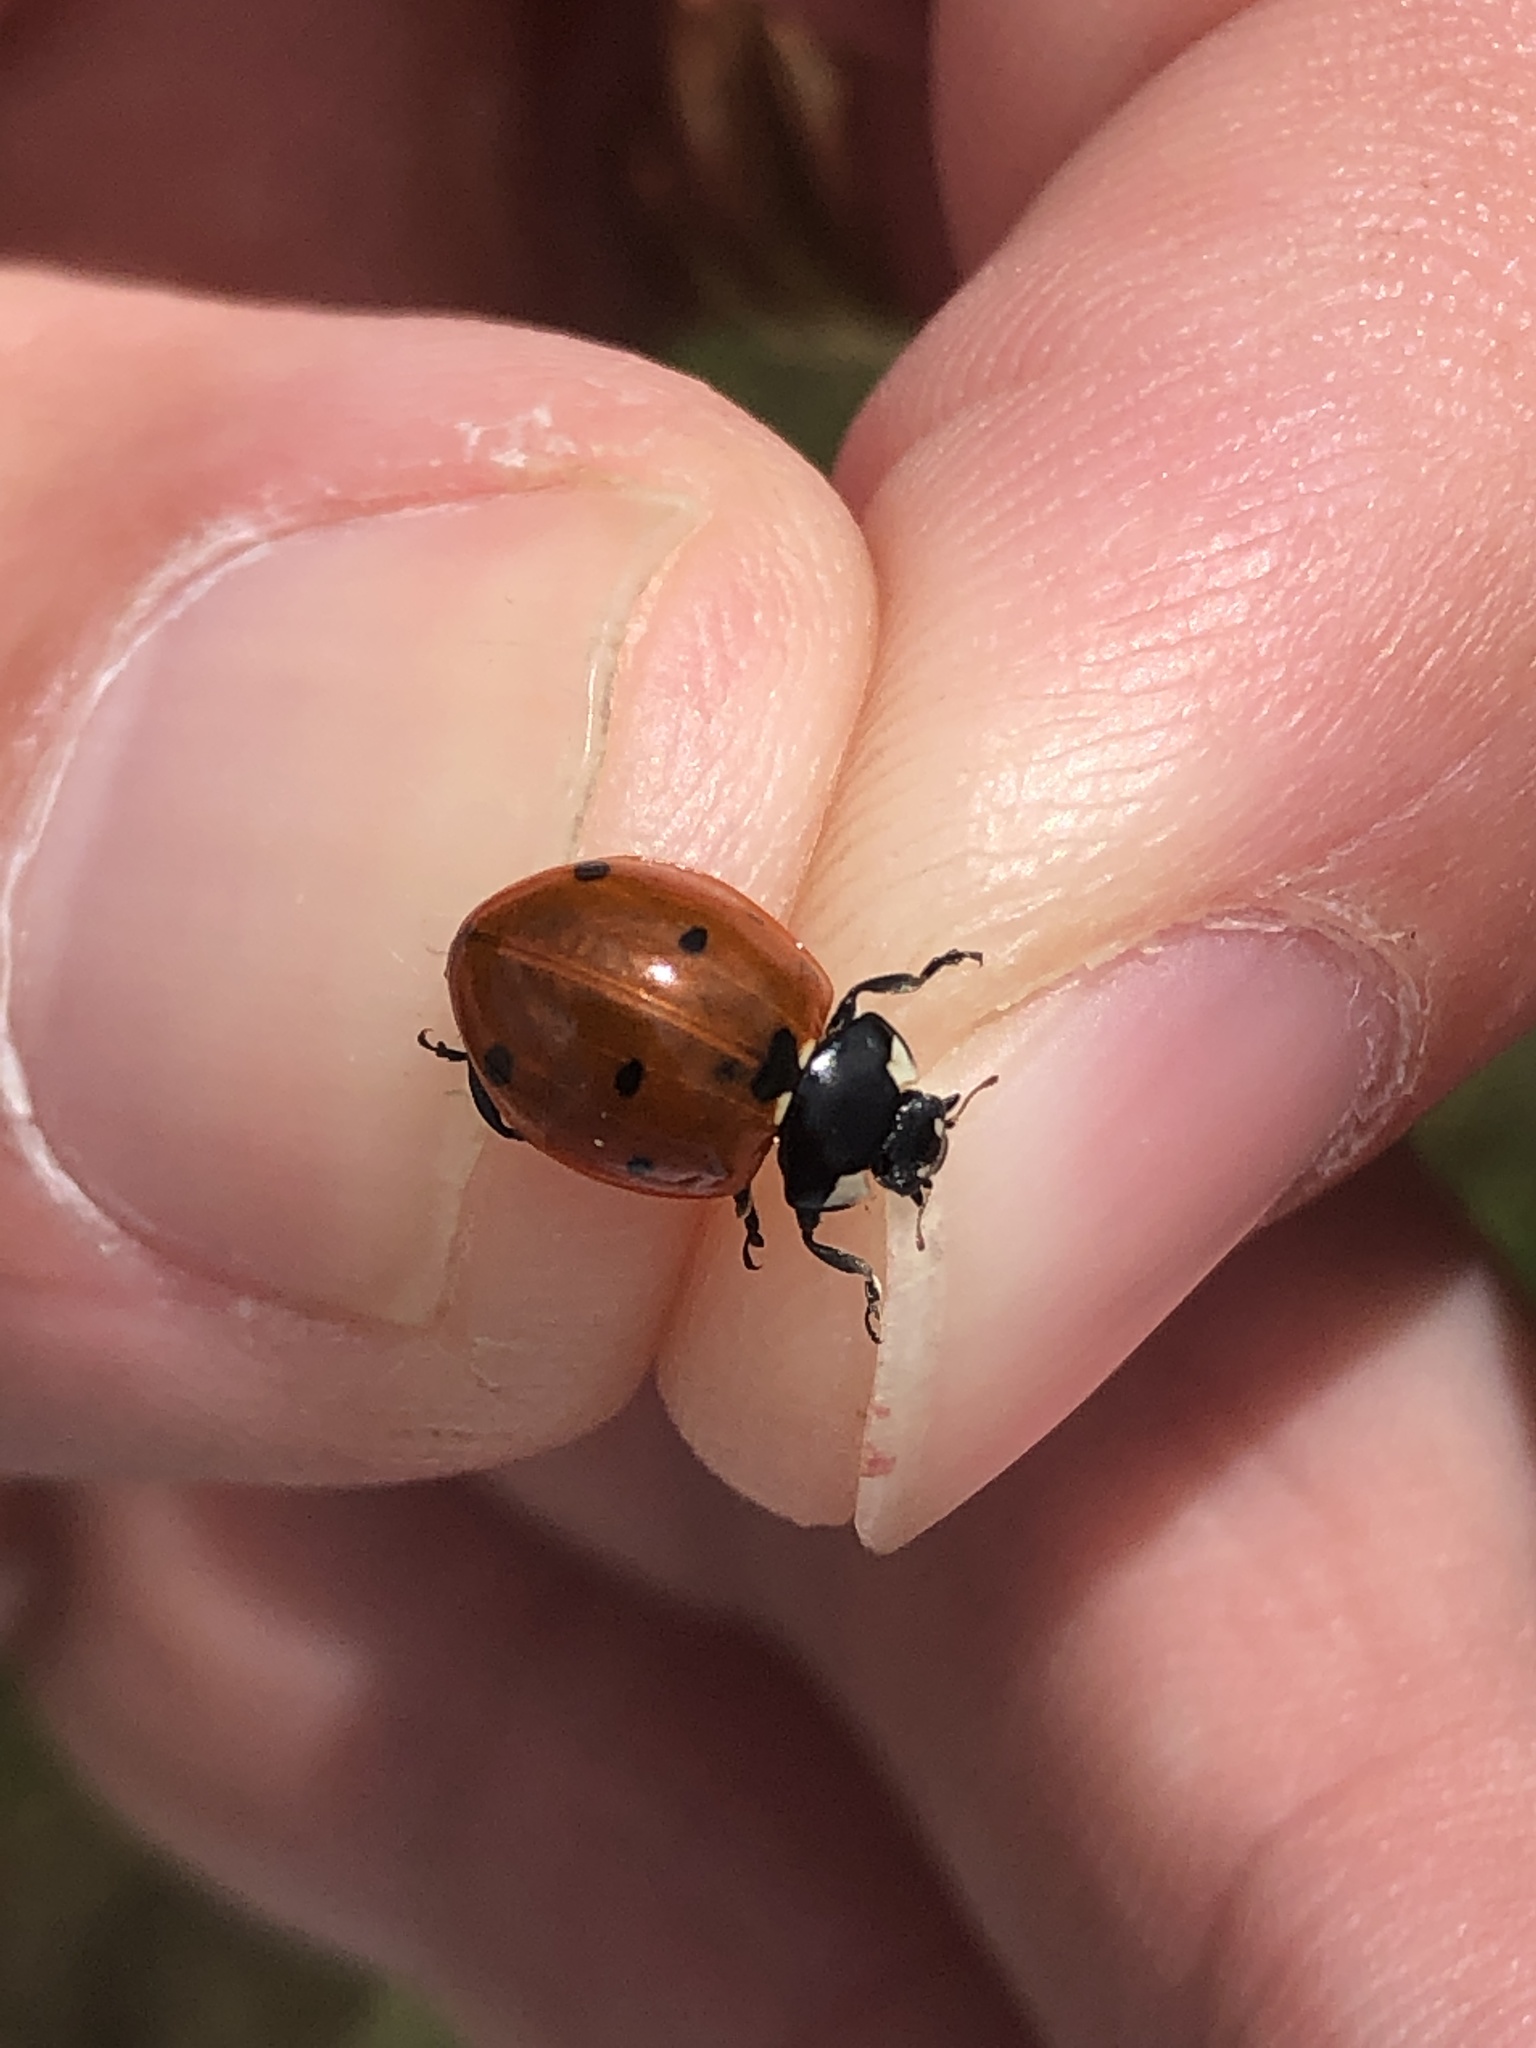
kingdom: Animalia
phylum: Arthropoda
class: Insecta
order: Coleoptera
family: Coccinellidae
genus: Coccinella
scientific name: Coccinella septempunctata
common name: Sevenspotted lady beetle
